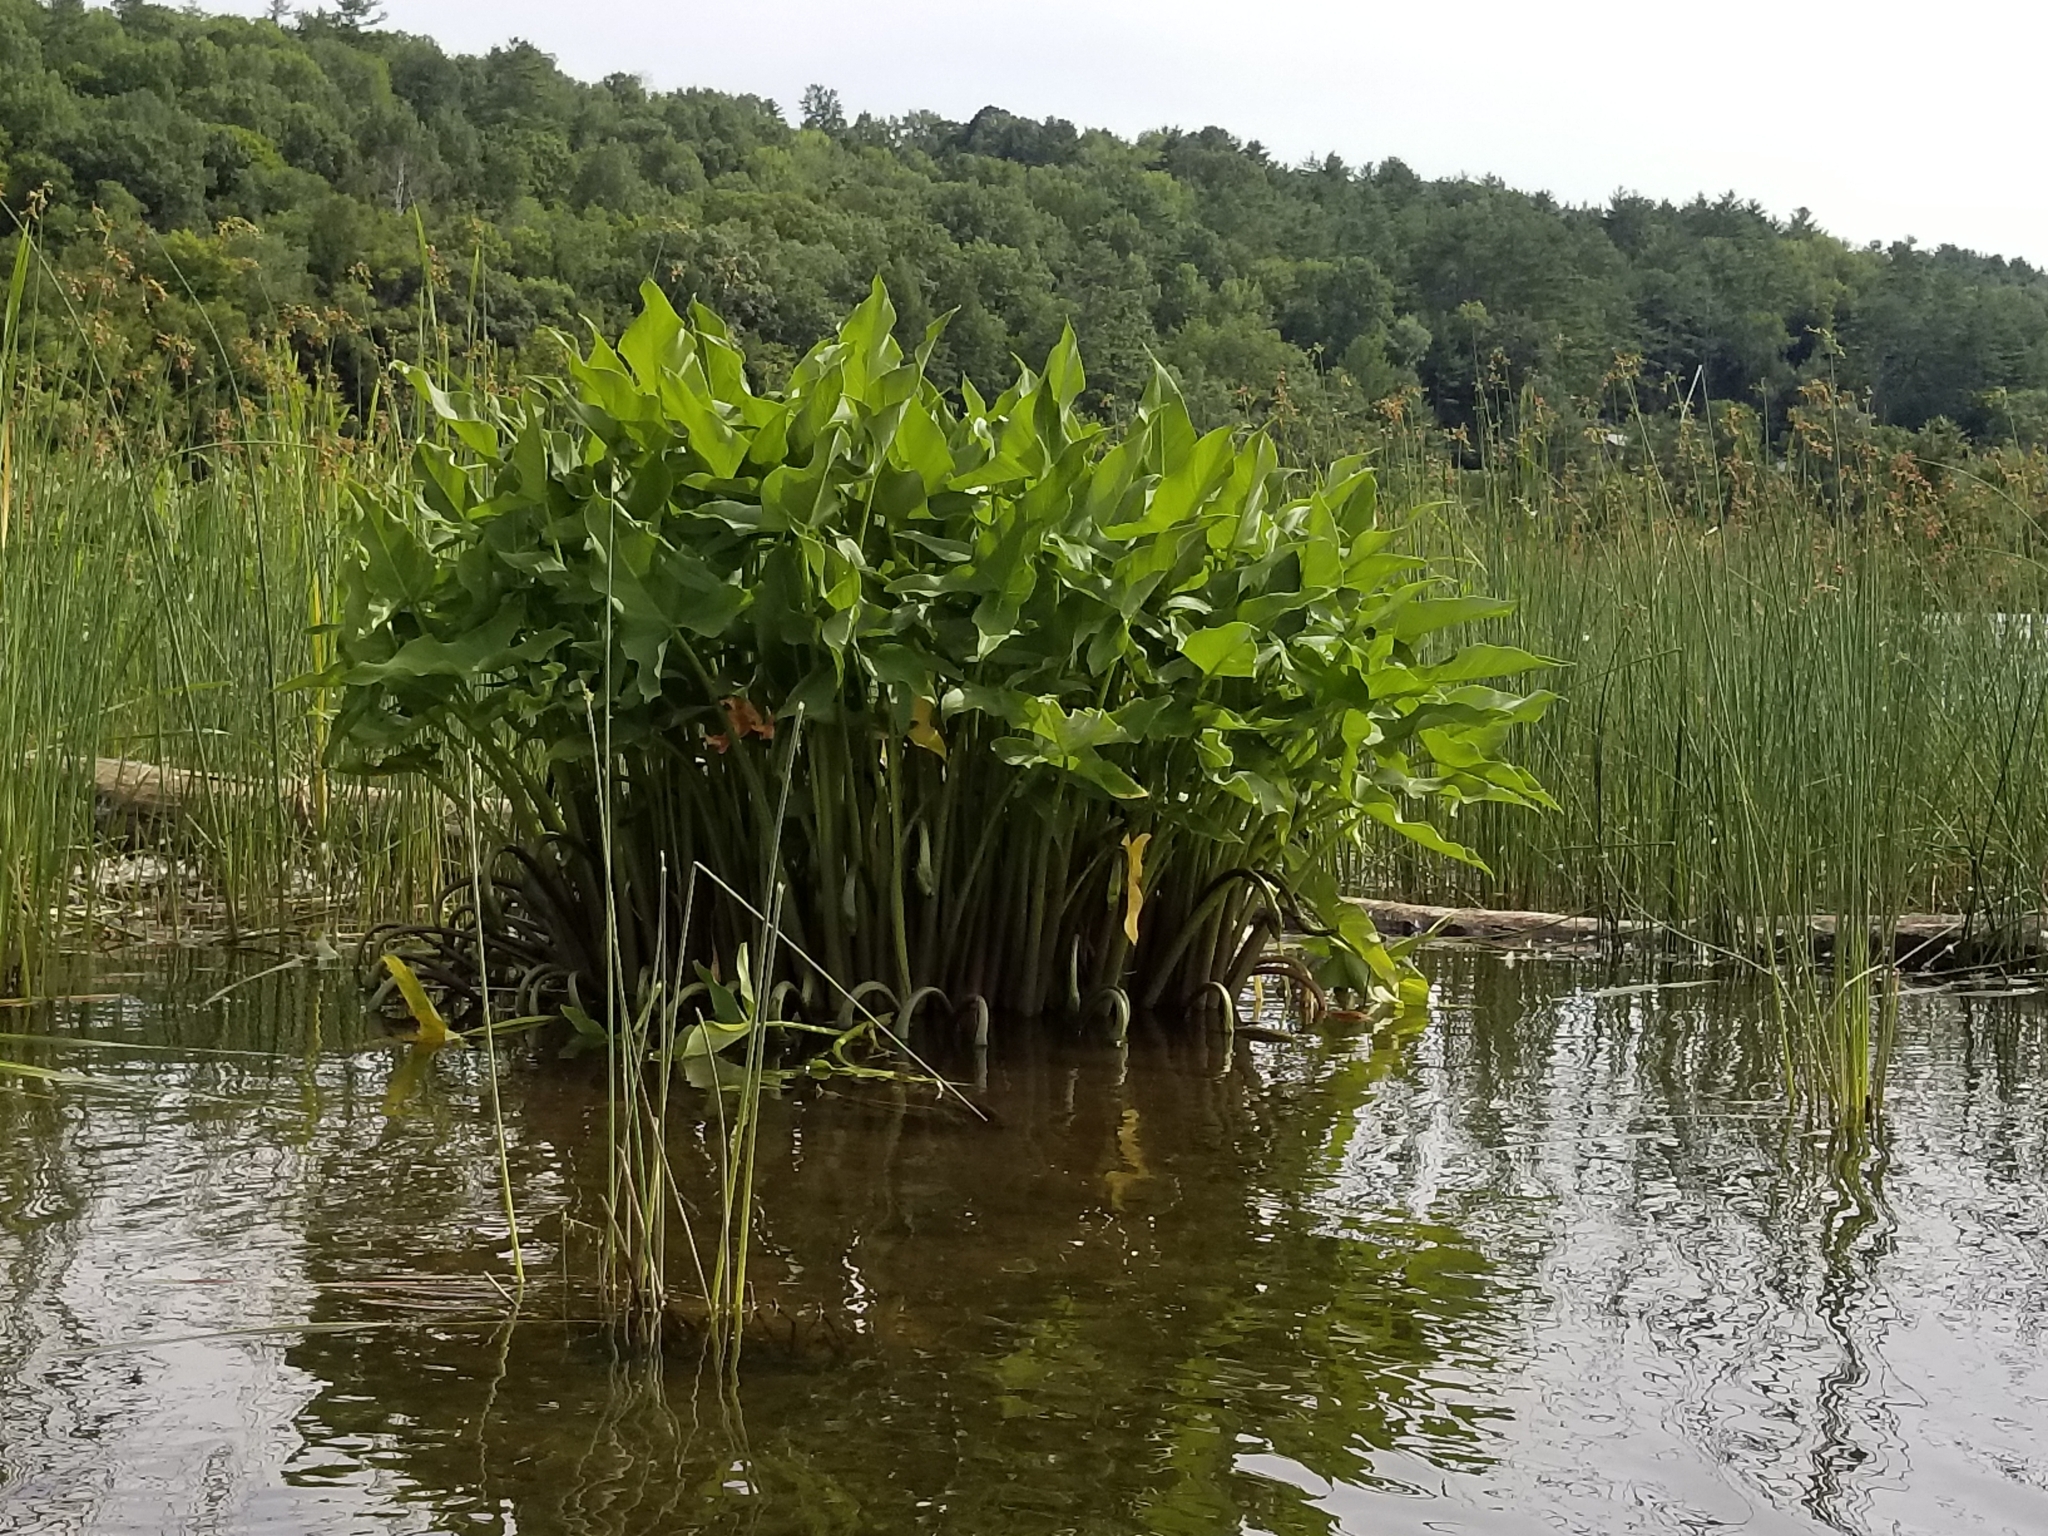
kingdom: Plantae
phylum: Tracheophyta
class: Liliopsida
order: Alismatales
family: Araceae
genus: Peltandra
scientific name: Peltandra virginica
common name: Arrow arum
